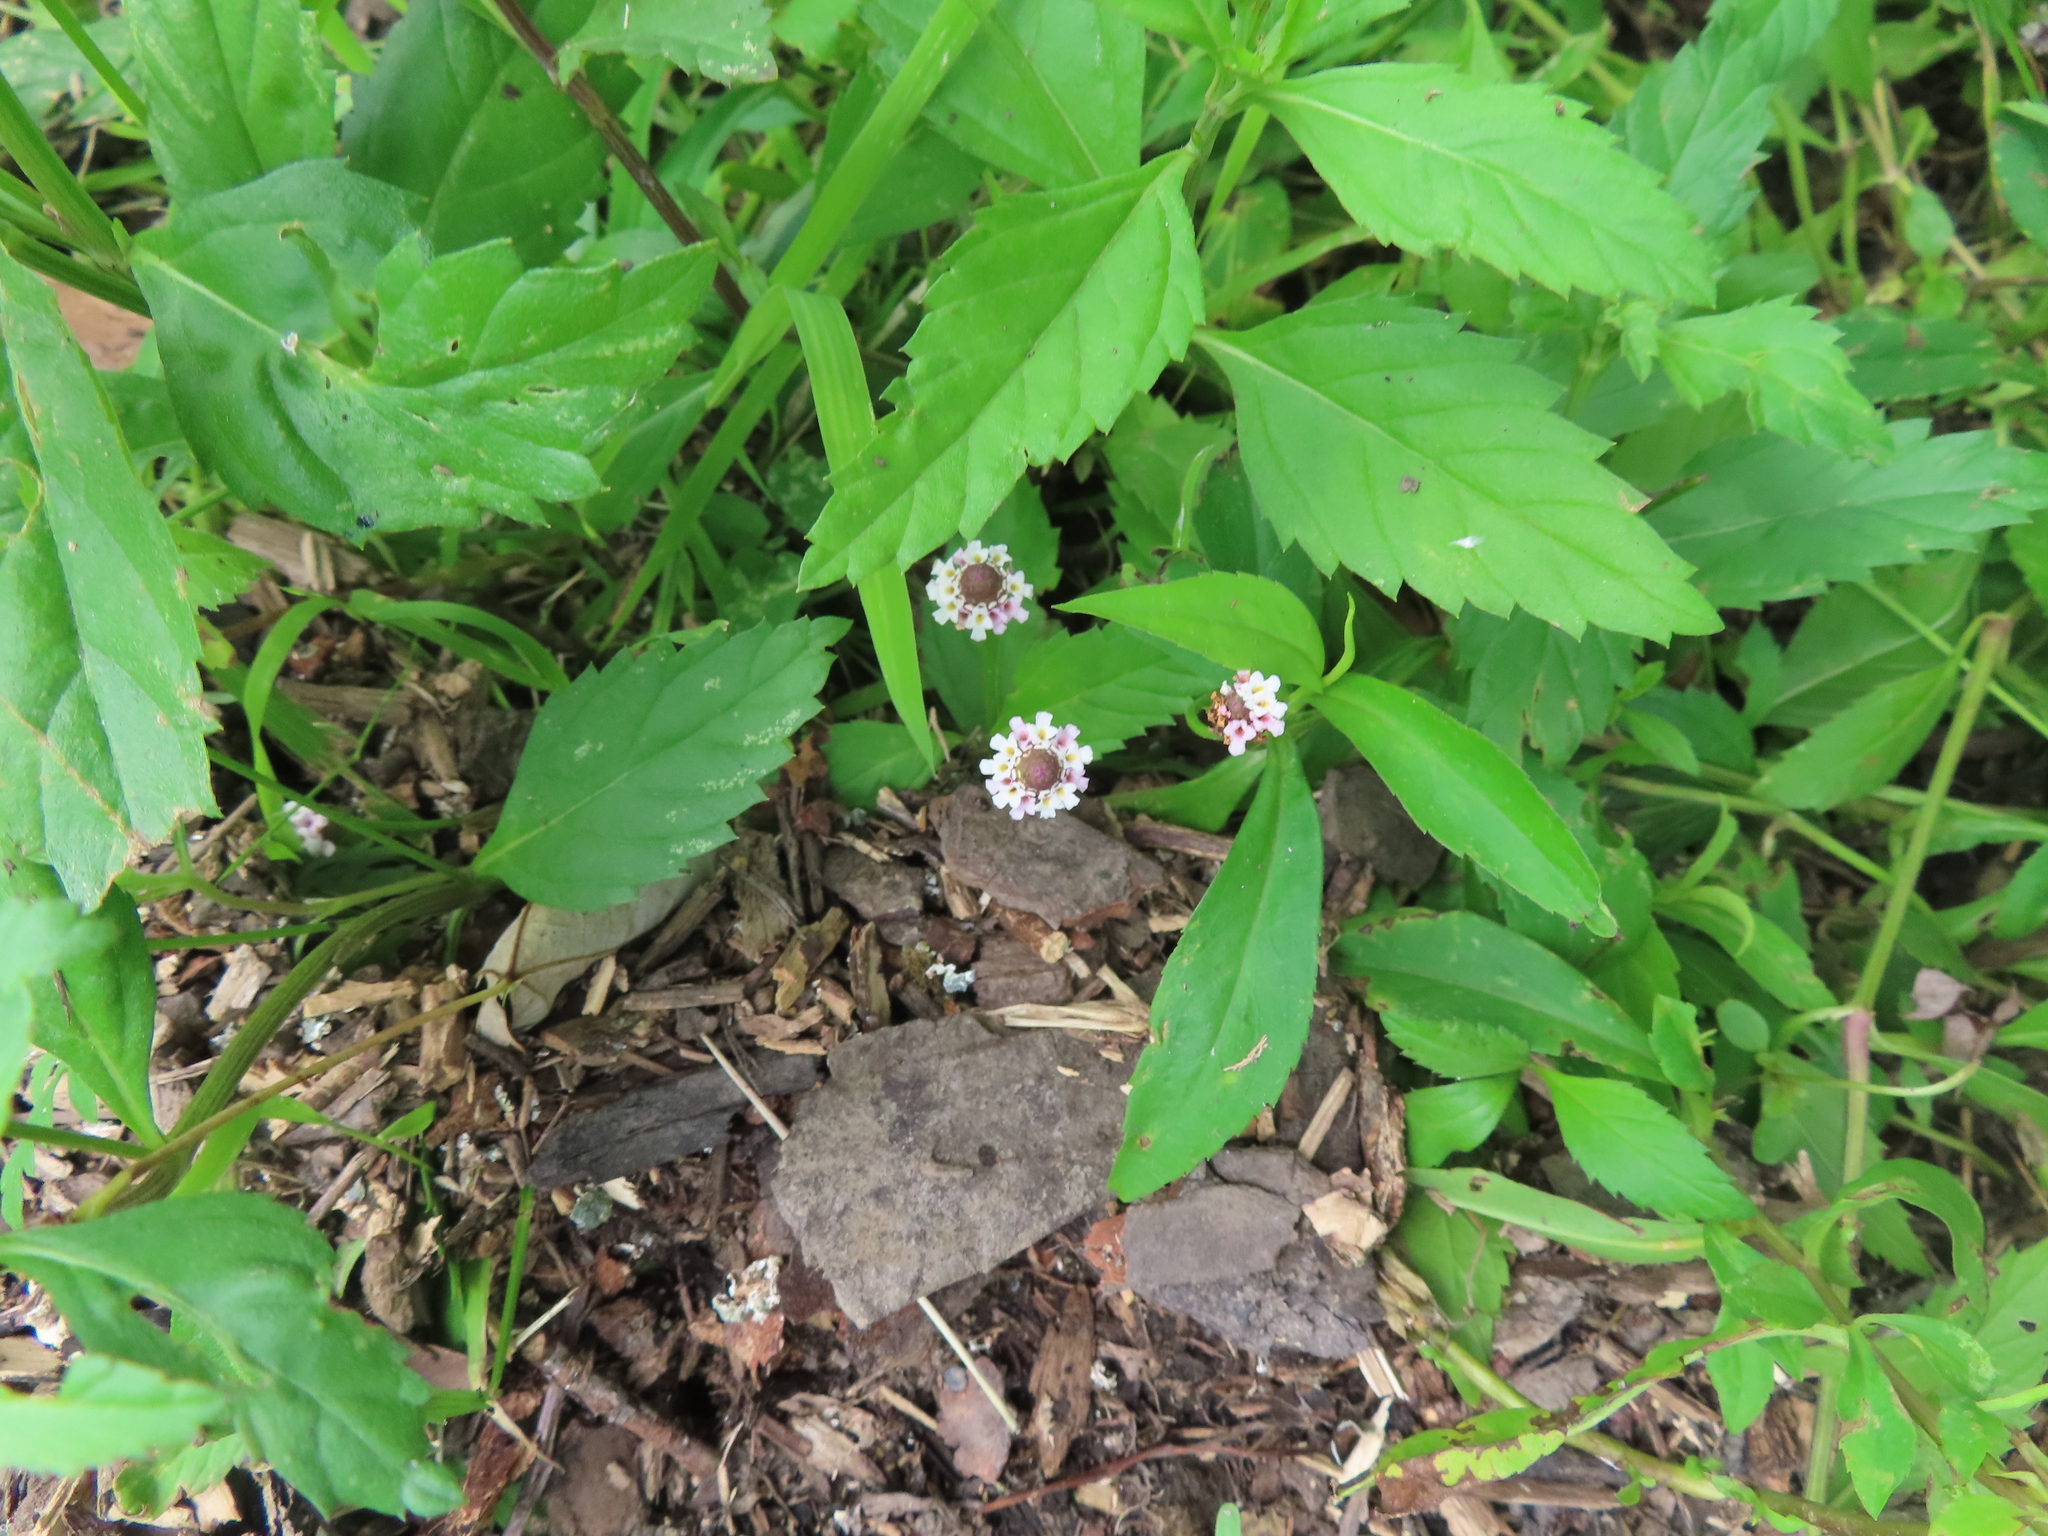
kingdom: Plantae
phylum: Tracheophyta
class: Magnoliopsida
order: Lamiales
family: Verbenaceae
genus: Phyla
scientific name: Phyla lanceolata
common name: Northern fogfruit
